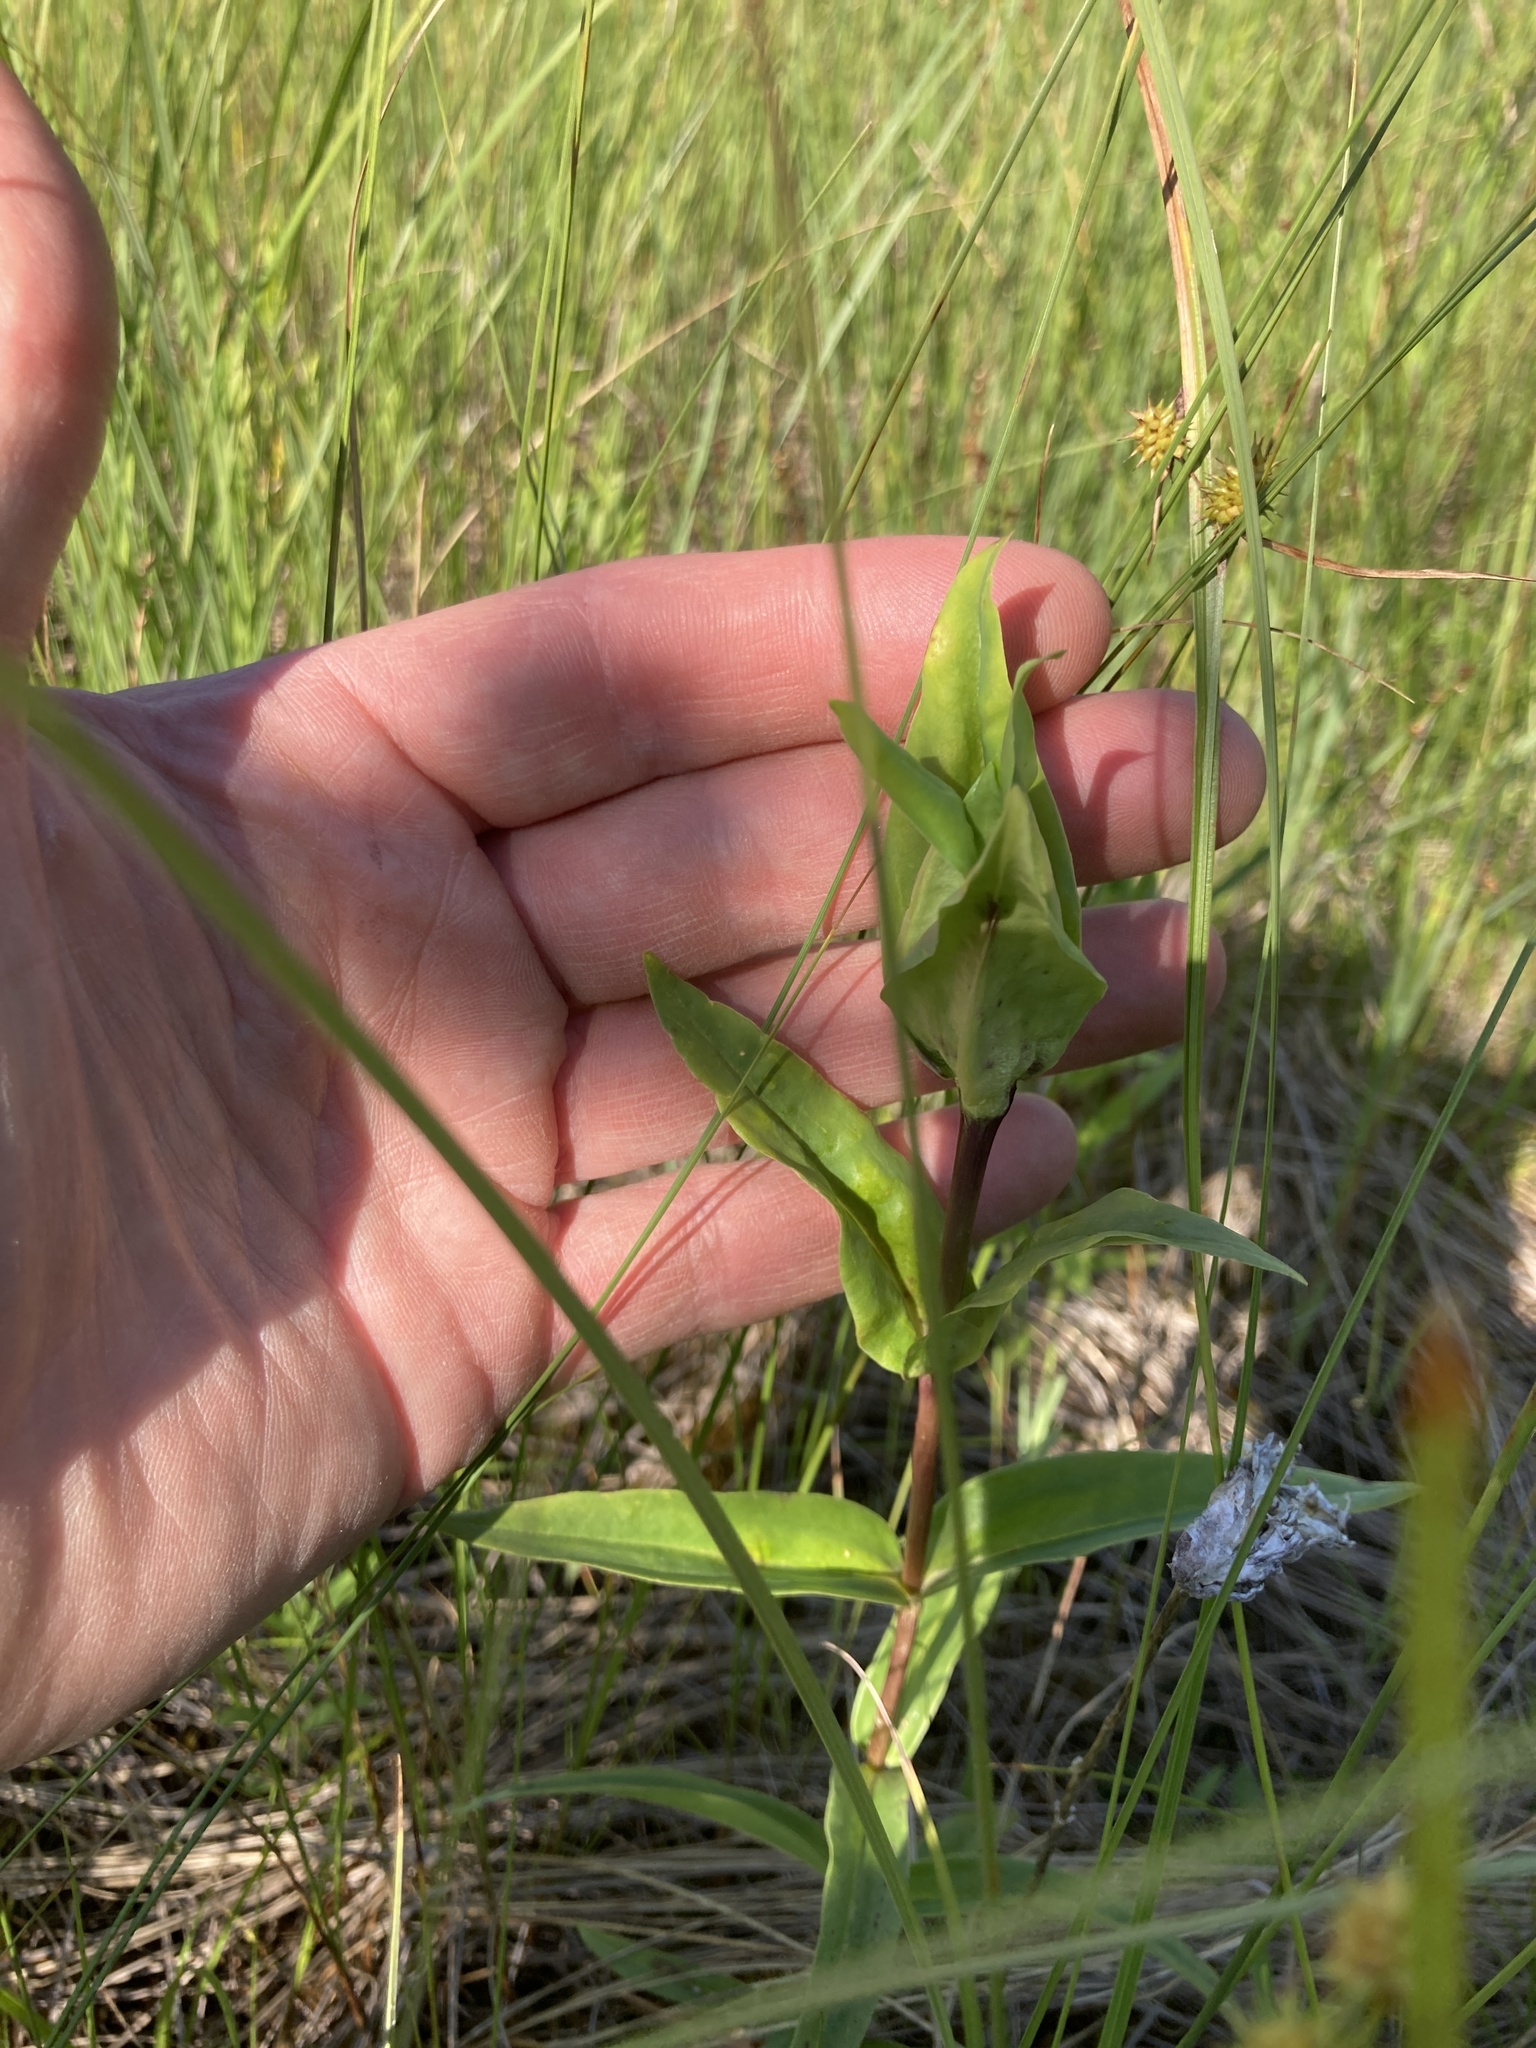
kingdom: Plantae
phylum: Tracheophyta
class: Magnoliopsida
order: Gentianales
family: Gentianaceae
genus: Gentiana
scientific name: Gentiana rubricaulis
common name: Purple-stemmed gentian
